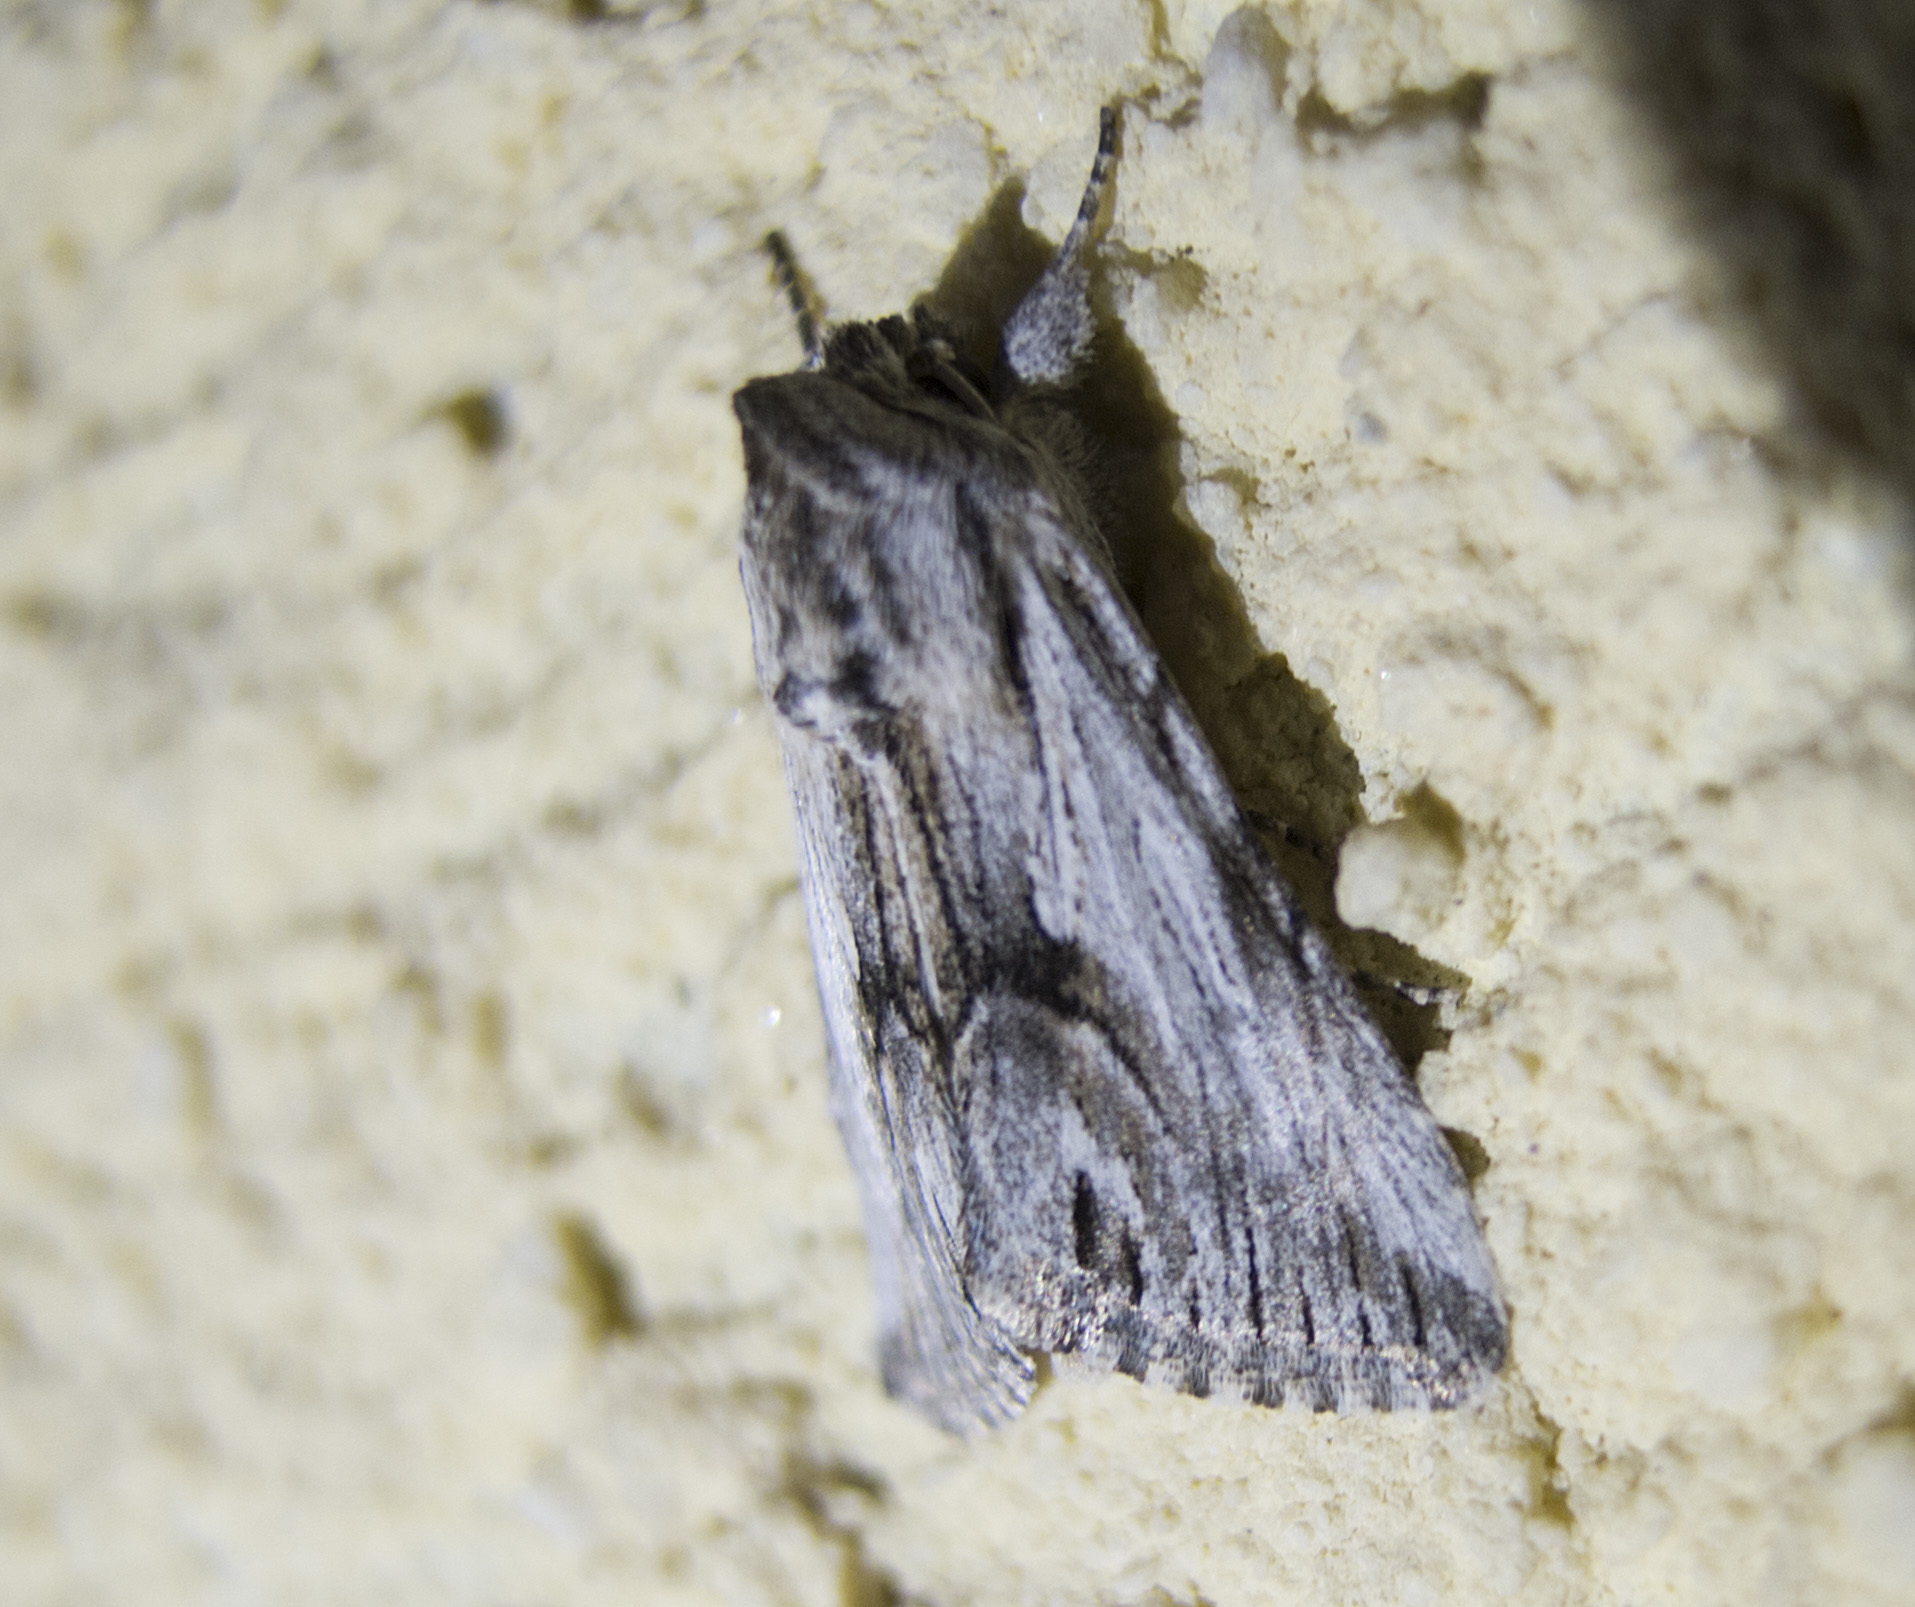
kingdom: Animalia
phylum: Arthropoda
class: Insecta
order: Lepidoptera
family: Noctuidae
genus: Calophasia
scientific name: Calophasia platyptera
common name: Antirrhinum brocade
